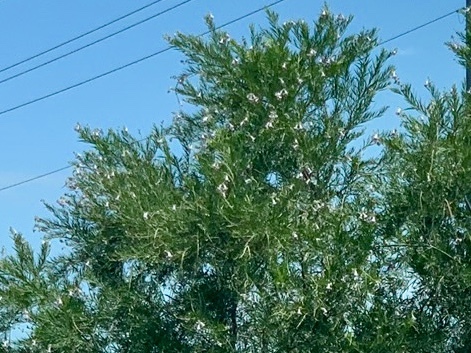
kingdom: Plantae
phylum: Tracheophyta
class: Magnoliopsida
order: Lamiales
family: Bignoniaceae
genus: Chilopsis
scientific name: Chilopsis linearis
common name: Desert-willow
